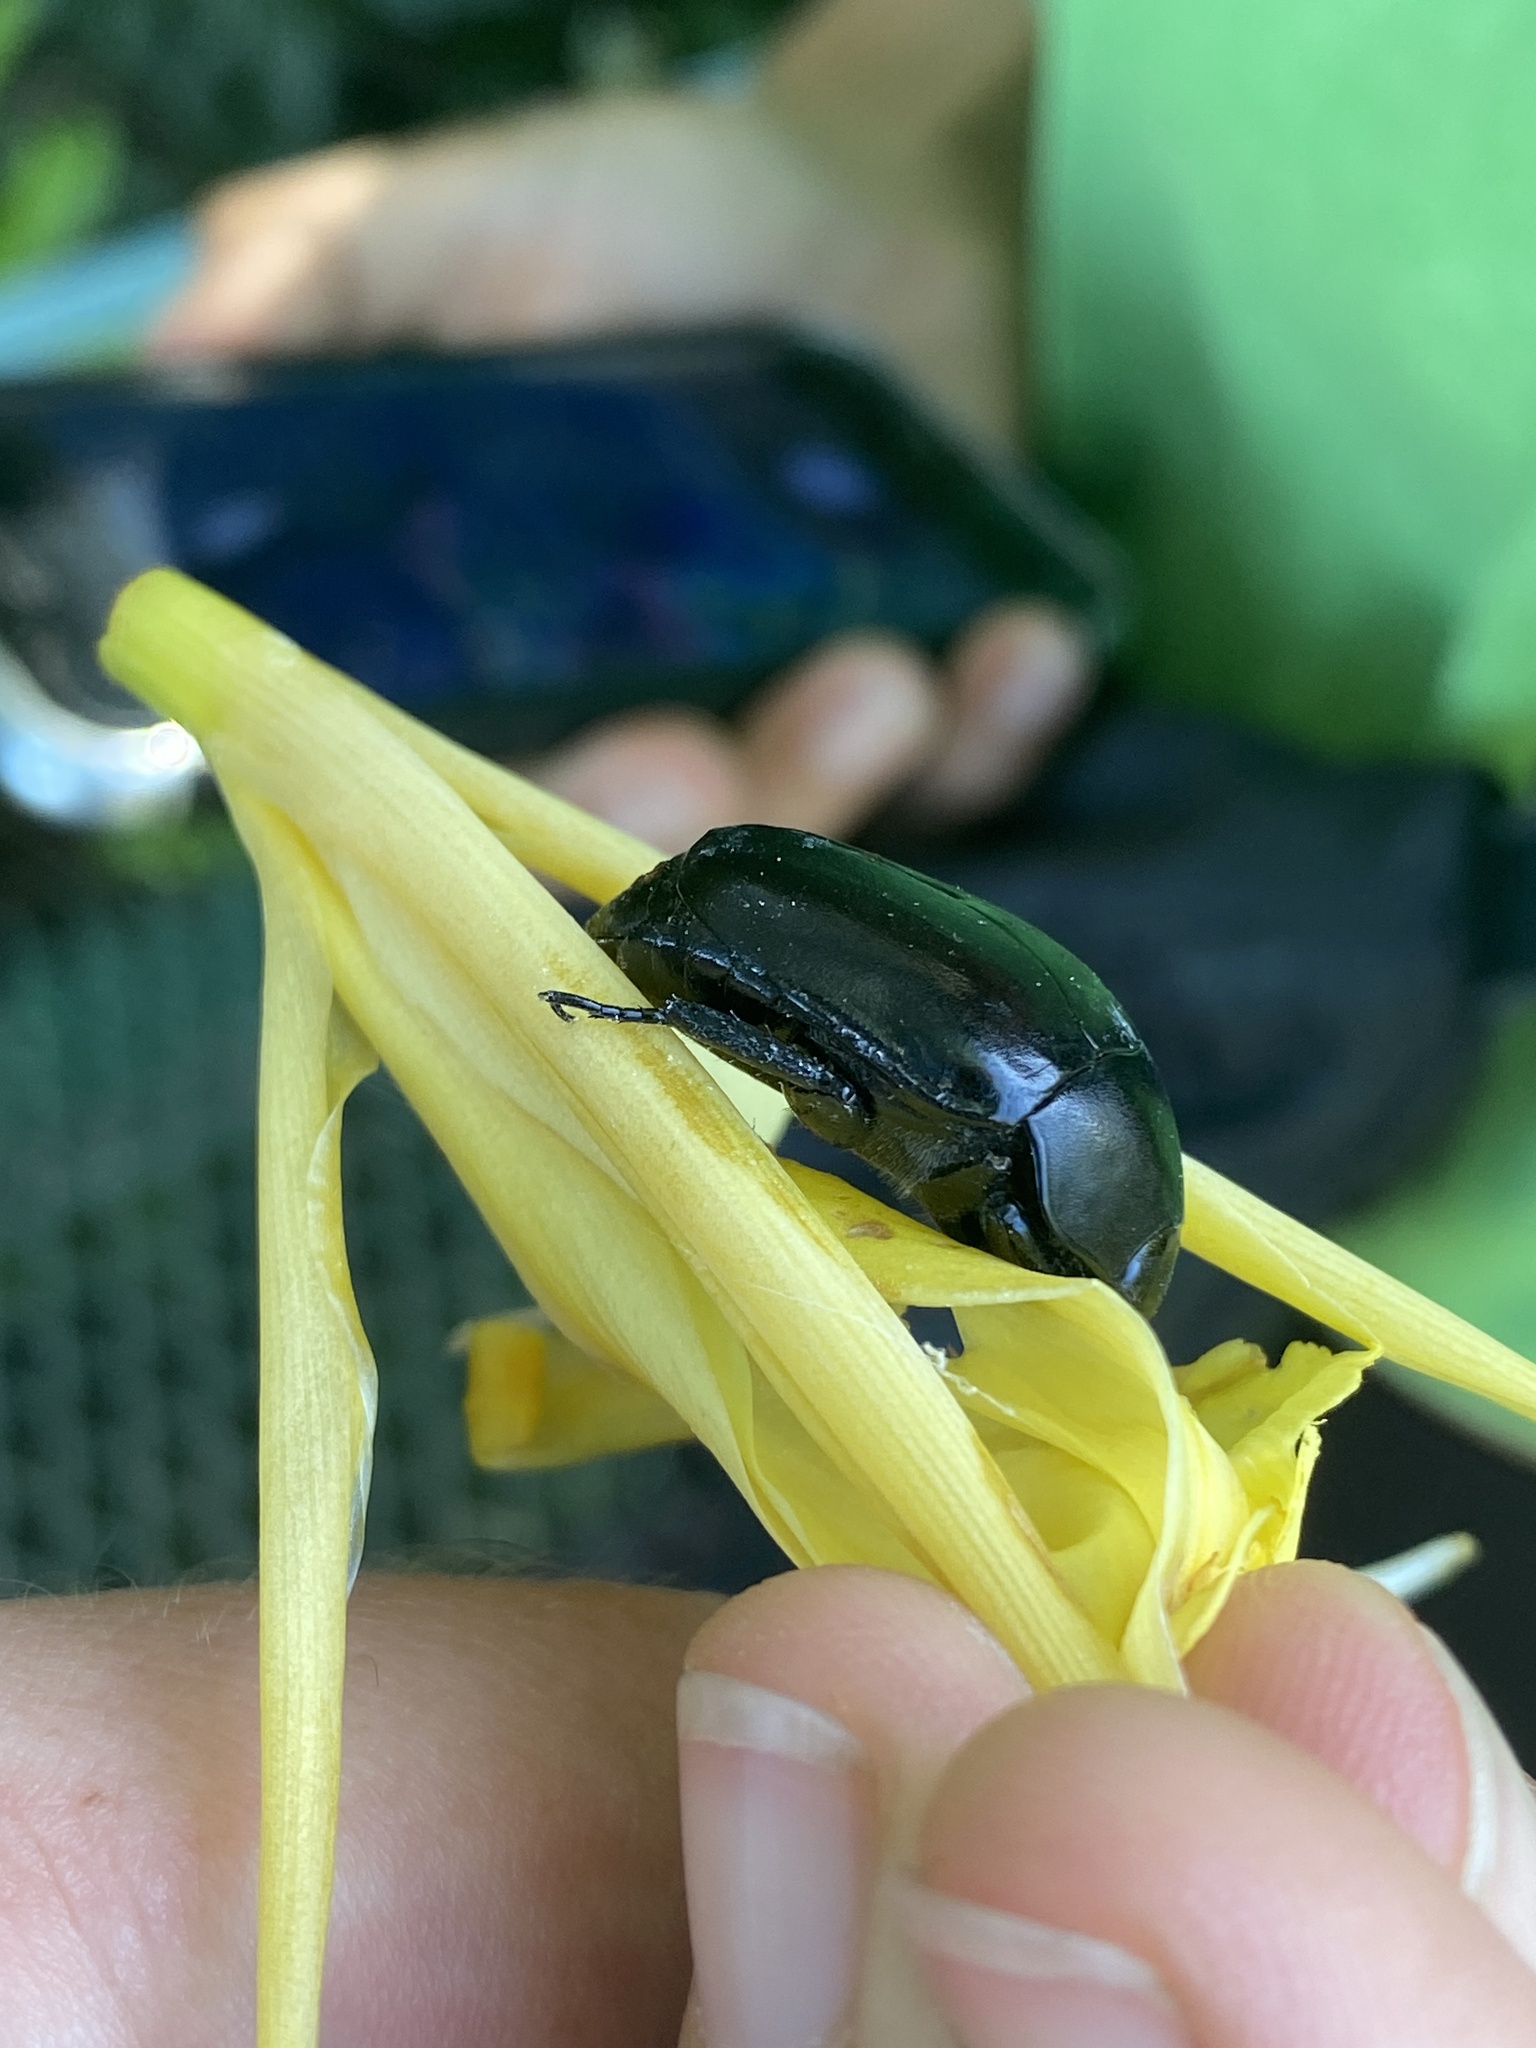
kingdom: Animalia
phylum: Arthropoda
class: Insecta
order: Coleoptera
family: Scarabaeidae
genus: Macraspis
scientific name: Macraspis morio
